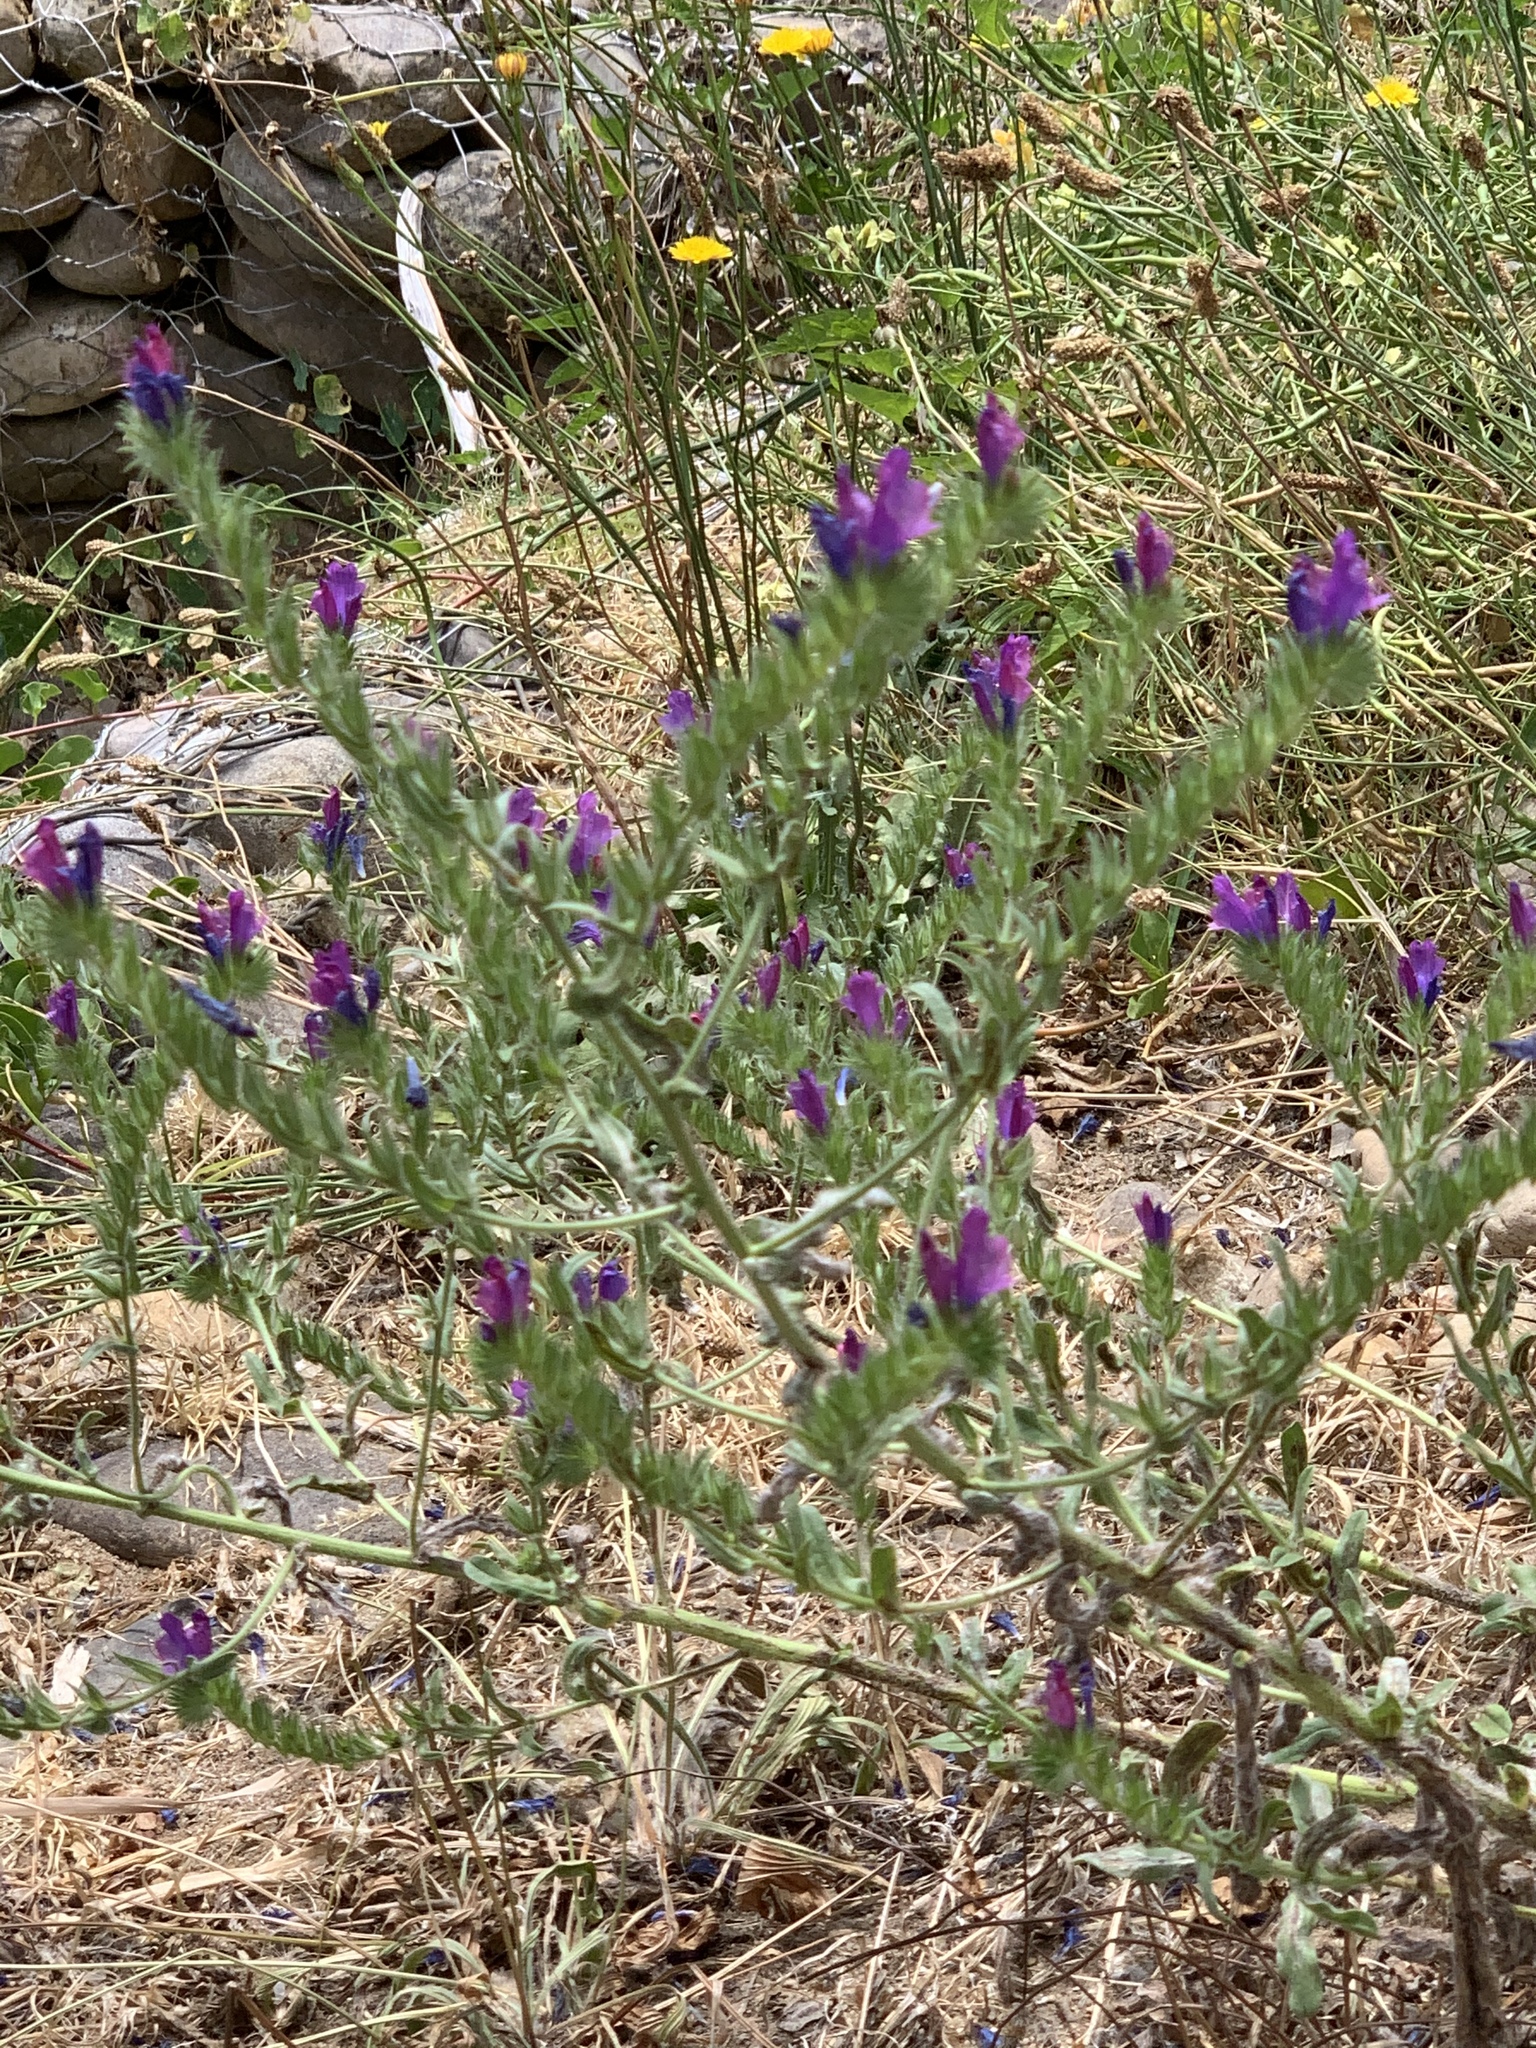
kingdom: Plantae
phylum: Tracheophyta
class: Magnoliopsida
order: Boraginales
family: Boraginaceae
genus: Echium
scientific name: Echium plantagineum
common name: Purple viper's-bugloss
